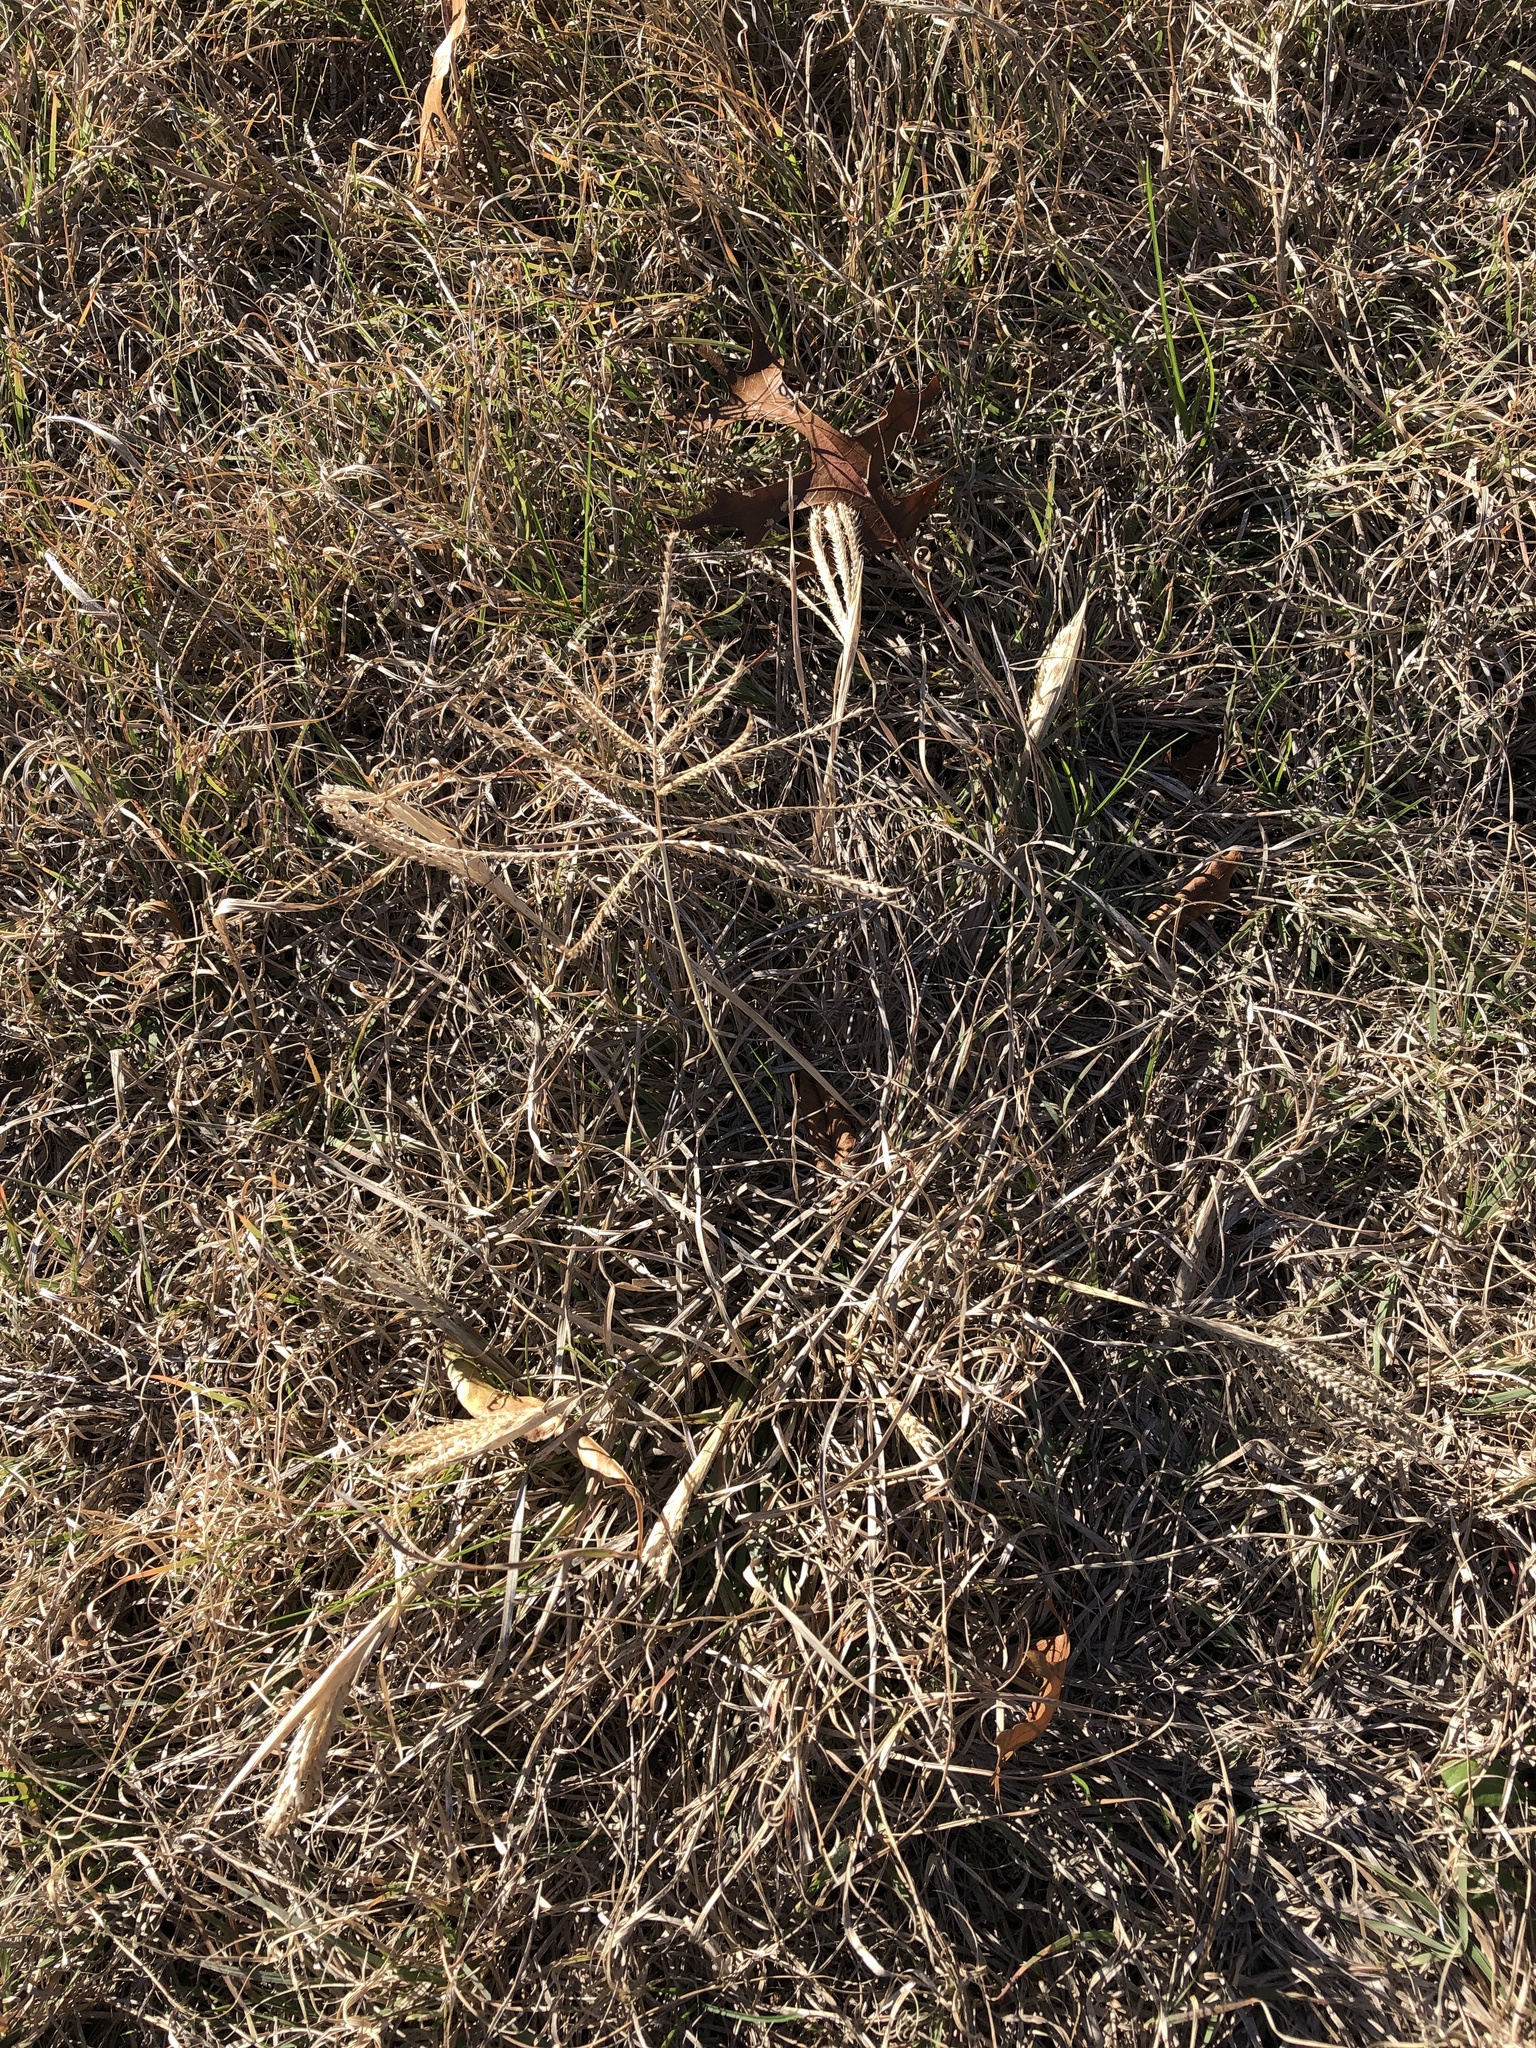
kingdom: Plantae
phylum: Tracheophyta
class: Liliopsida
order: Poales
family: Poaceae
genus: Chloris
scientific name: Chloris verticillata
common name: Tumble windmill grass
